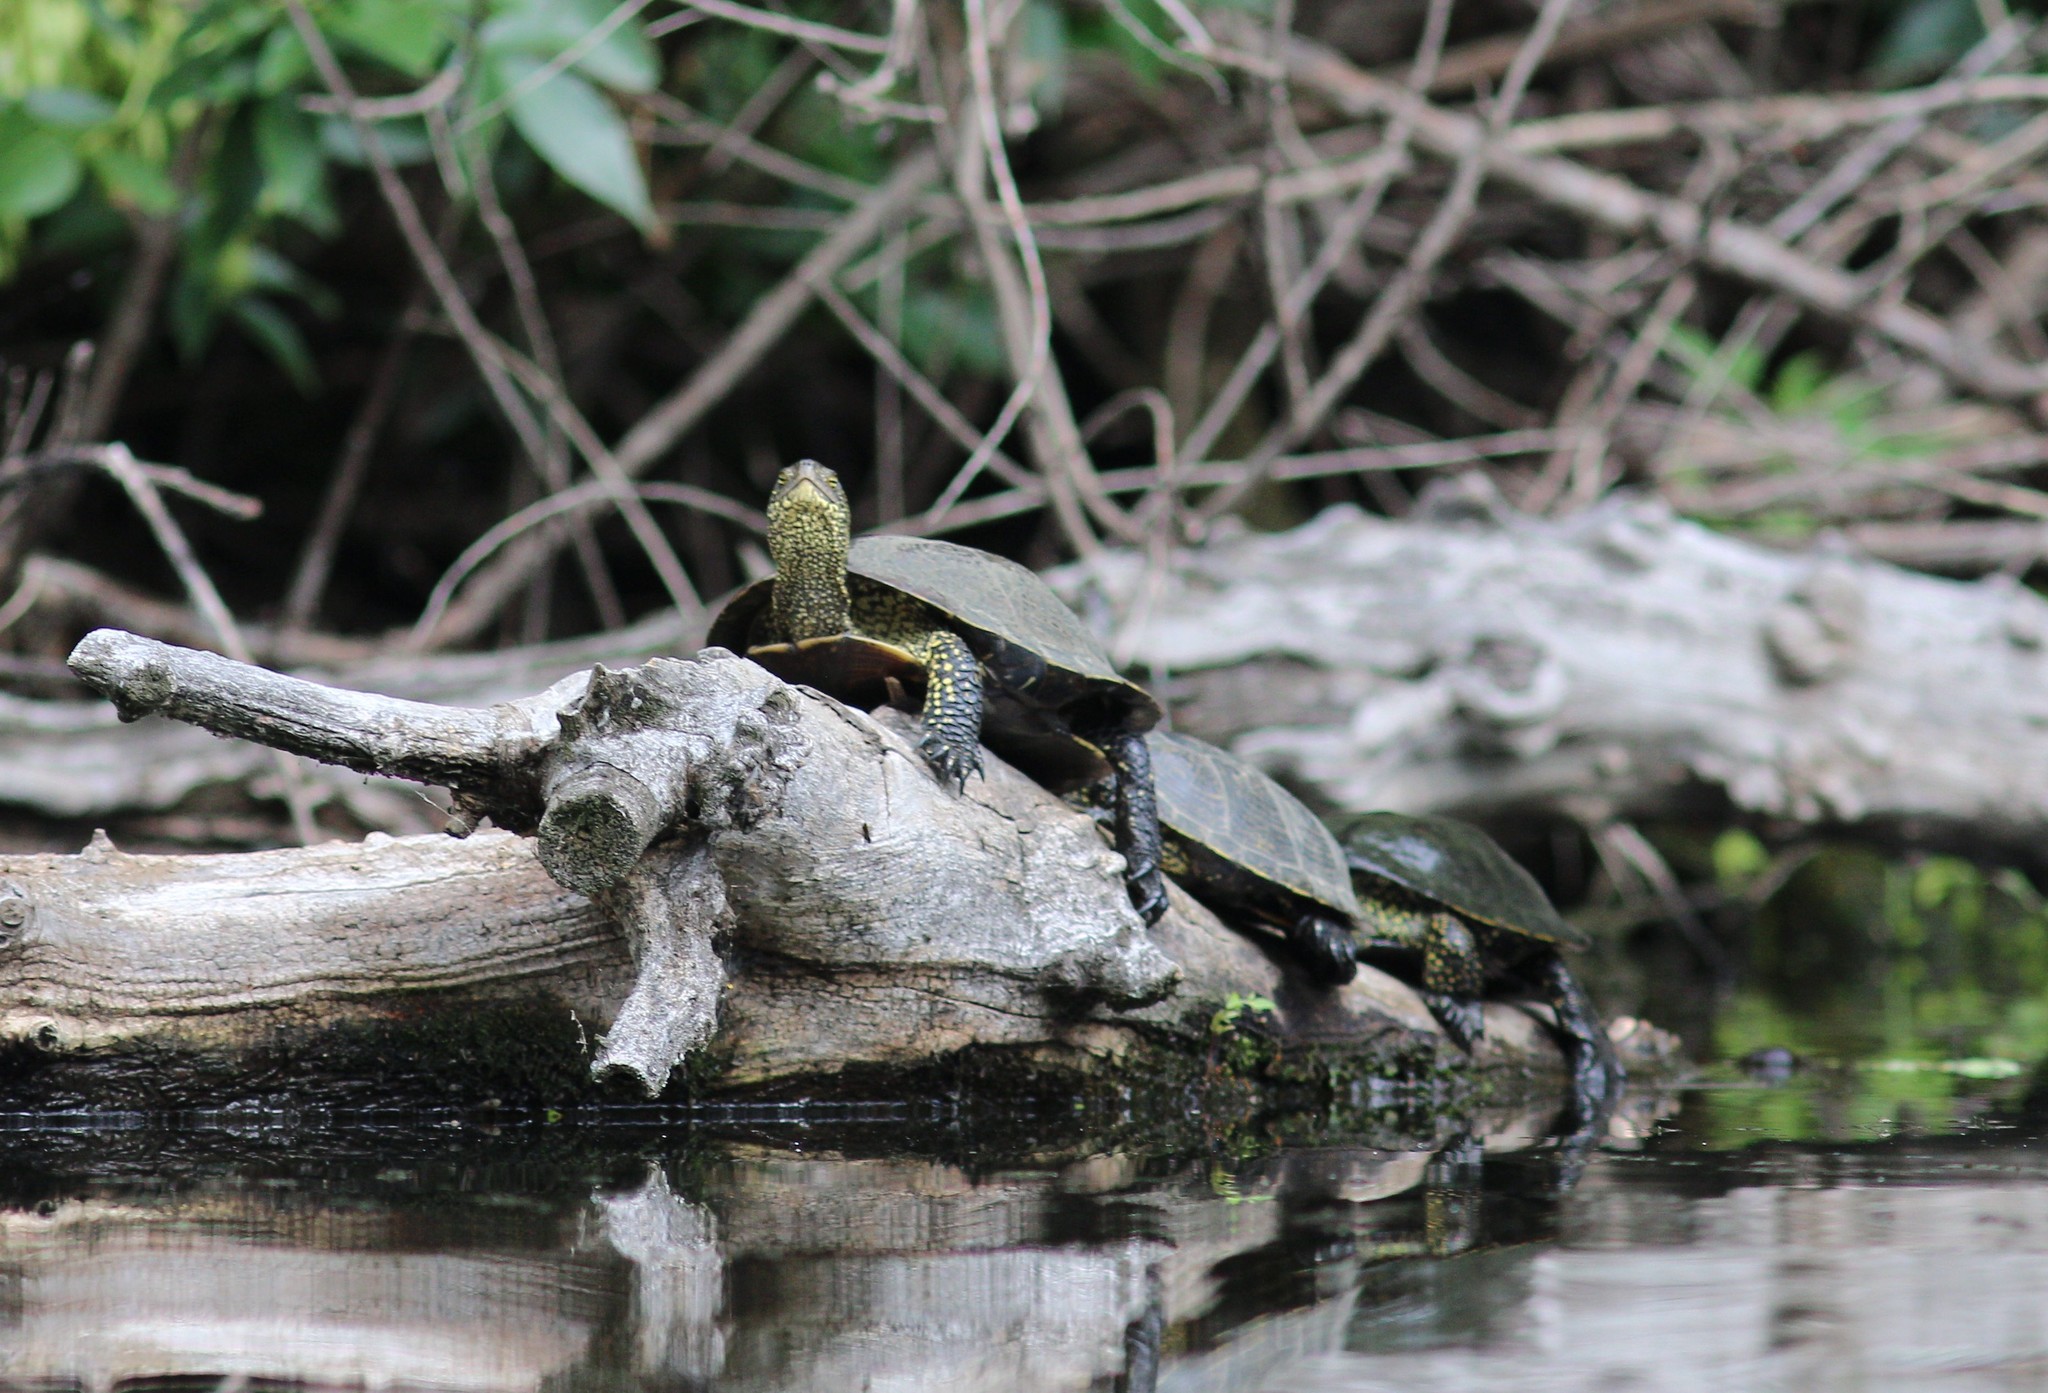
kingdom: Animalia
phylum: Chordata
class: Testudines
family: Emydidae
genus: Emys
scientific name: Emys orbicularis
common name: European pond turtle
